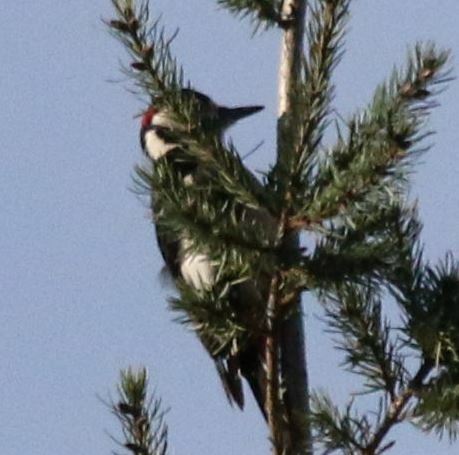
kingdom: Animalia
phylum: Chordata
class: Aves
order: Piciformes
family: Picidae
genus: Dendrocopos
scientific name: Dendrocopos major
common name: Great spotted woodpecker
